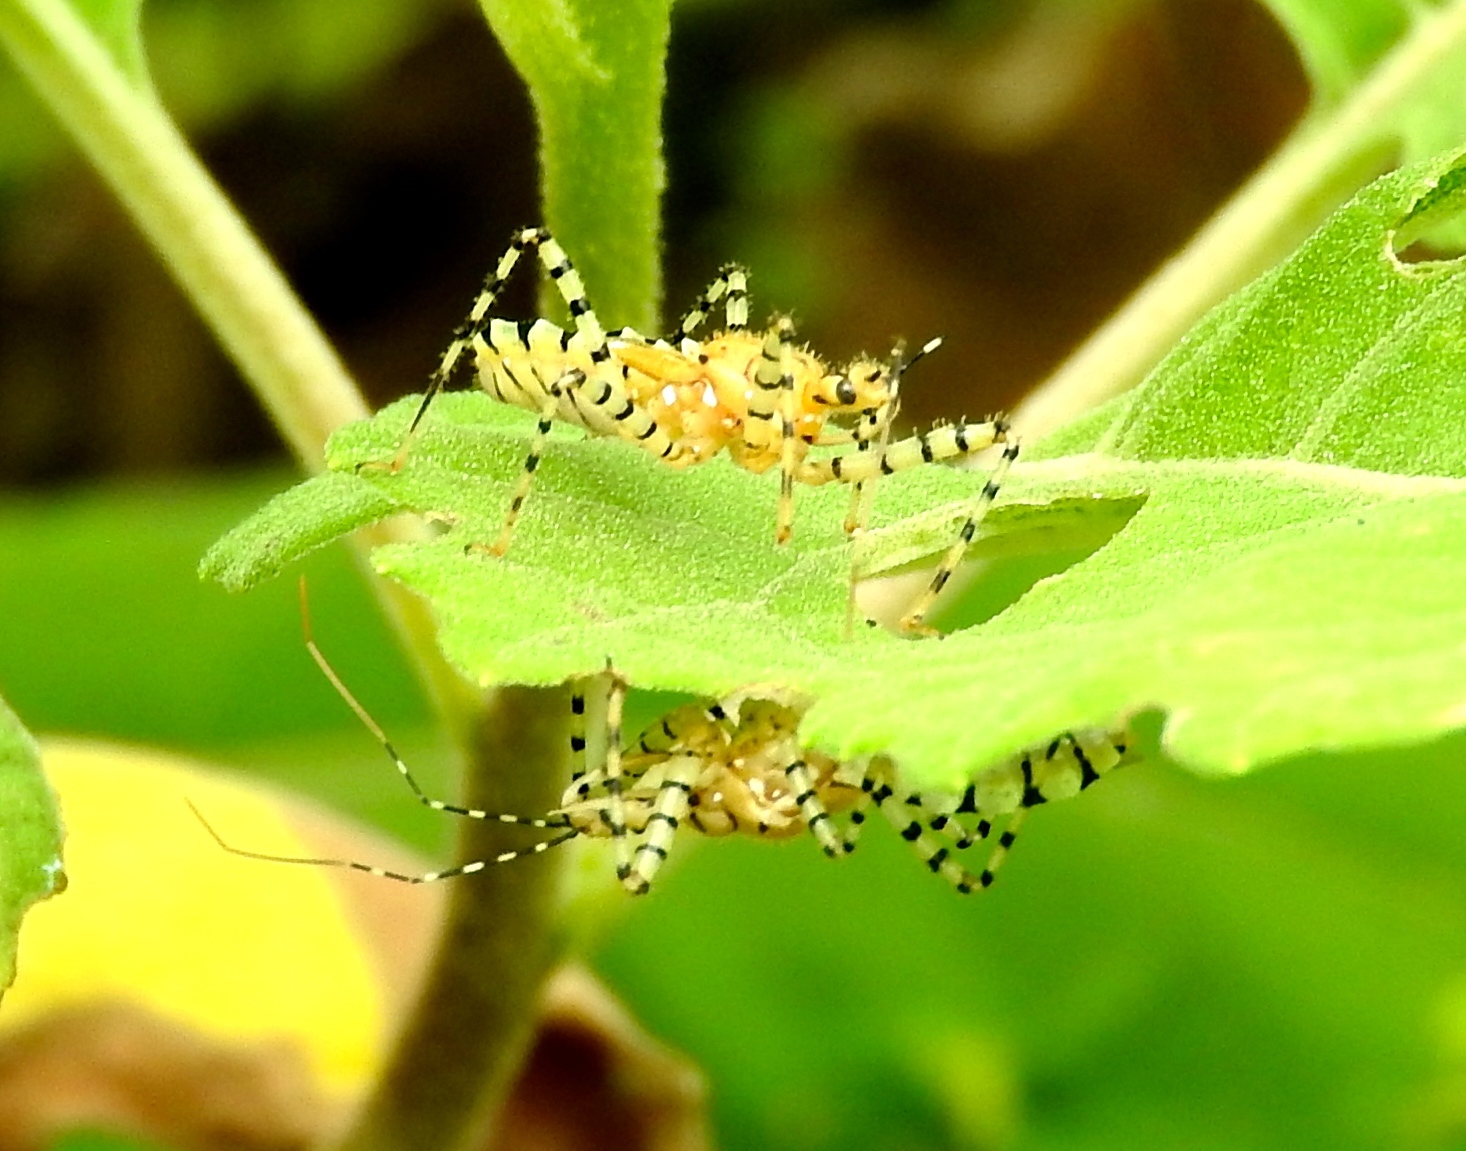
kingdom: Animalia
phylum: Arthropoda
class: Insecta
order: Hemiptera
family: Reduviidae
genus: Pselliopus
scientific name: Pselliopus
